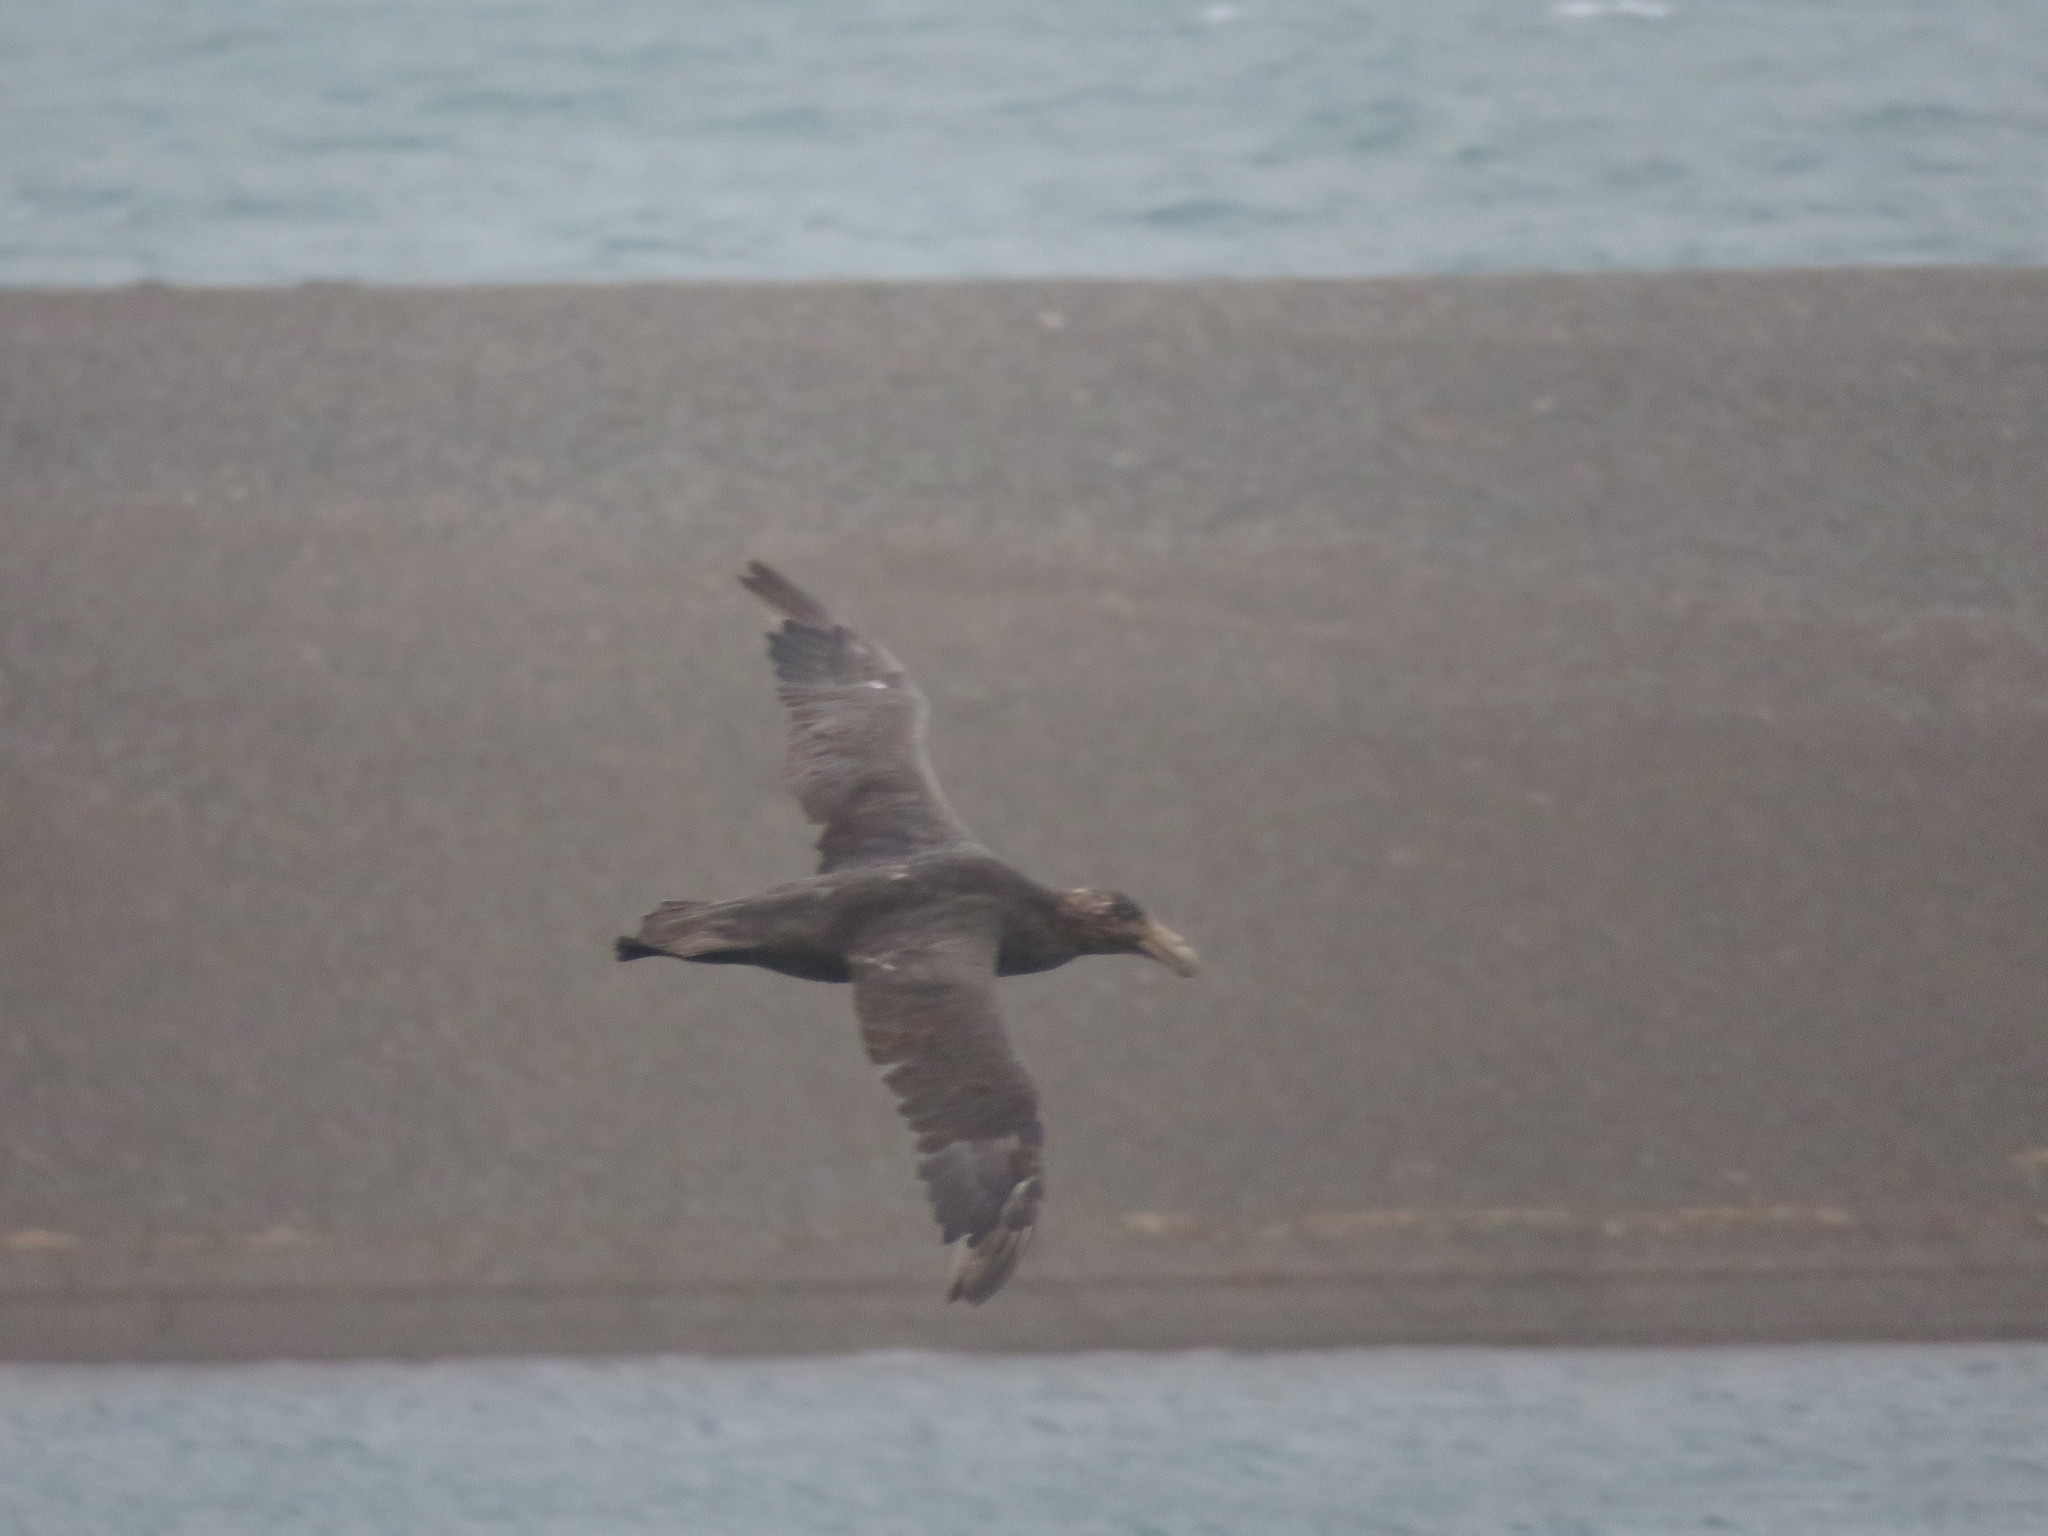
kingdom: Animalia
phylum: Chordata
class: Aves
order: Procellariiformes
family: Procellariidae
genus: Macronectes
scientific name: Macronectes giganteus
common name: Southern giant petrel
